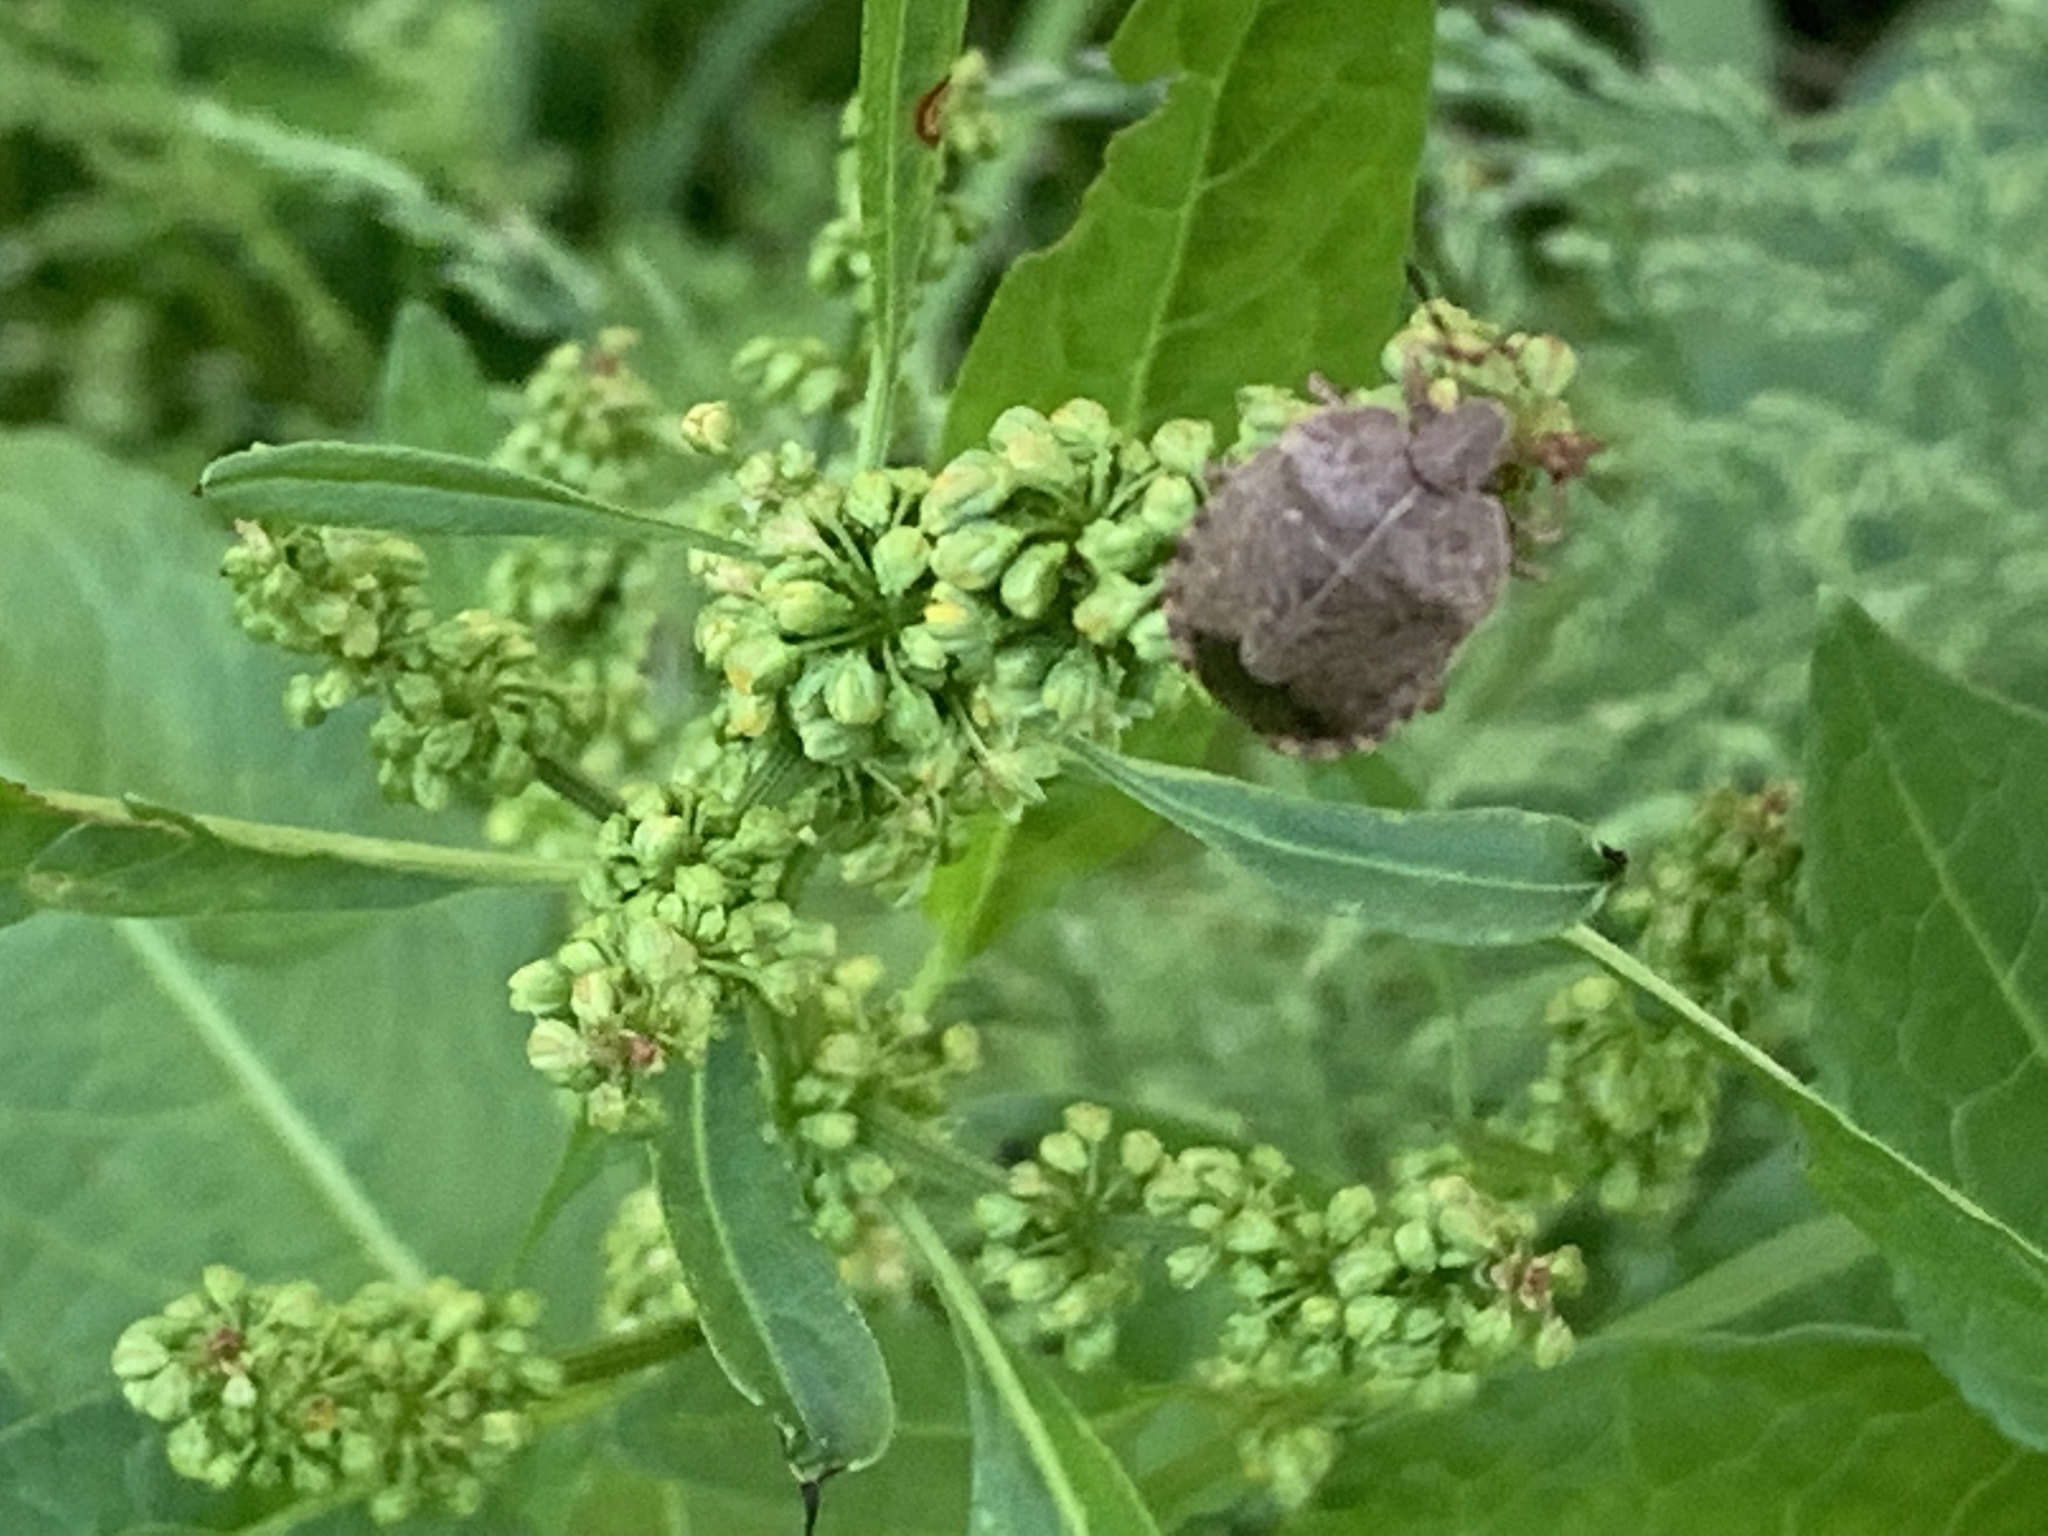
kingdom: Animalia
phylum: Arthropoda
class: Insecta
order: Hemiptera
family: Pentatomidae
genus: Menecles
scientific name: Menecles insertus
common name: Elf shoe stink bug
